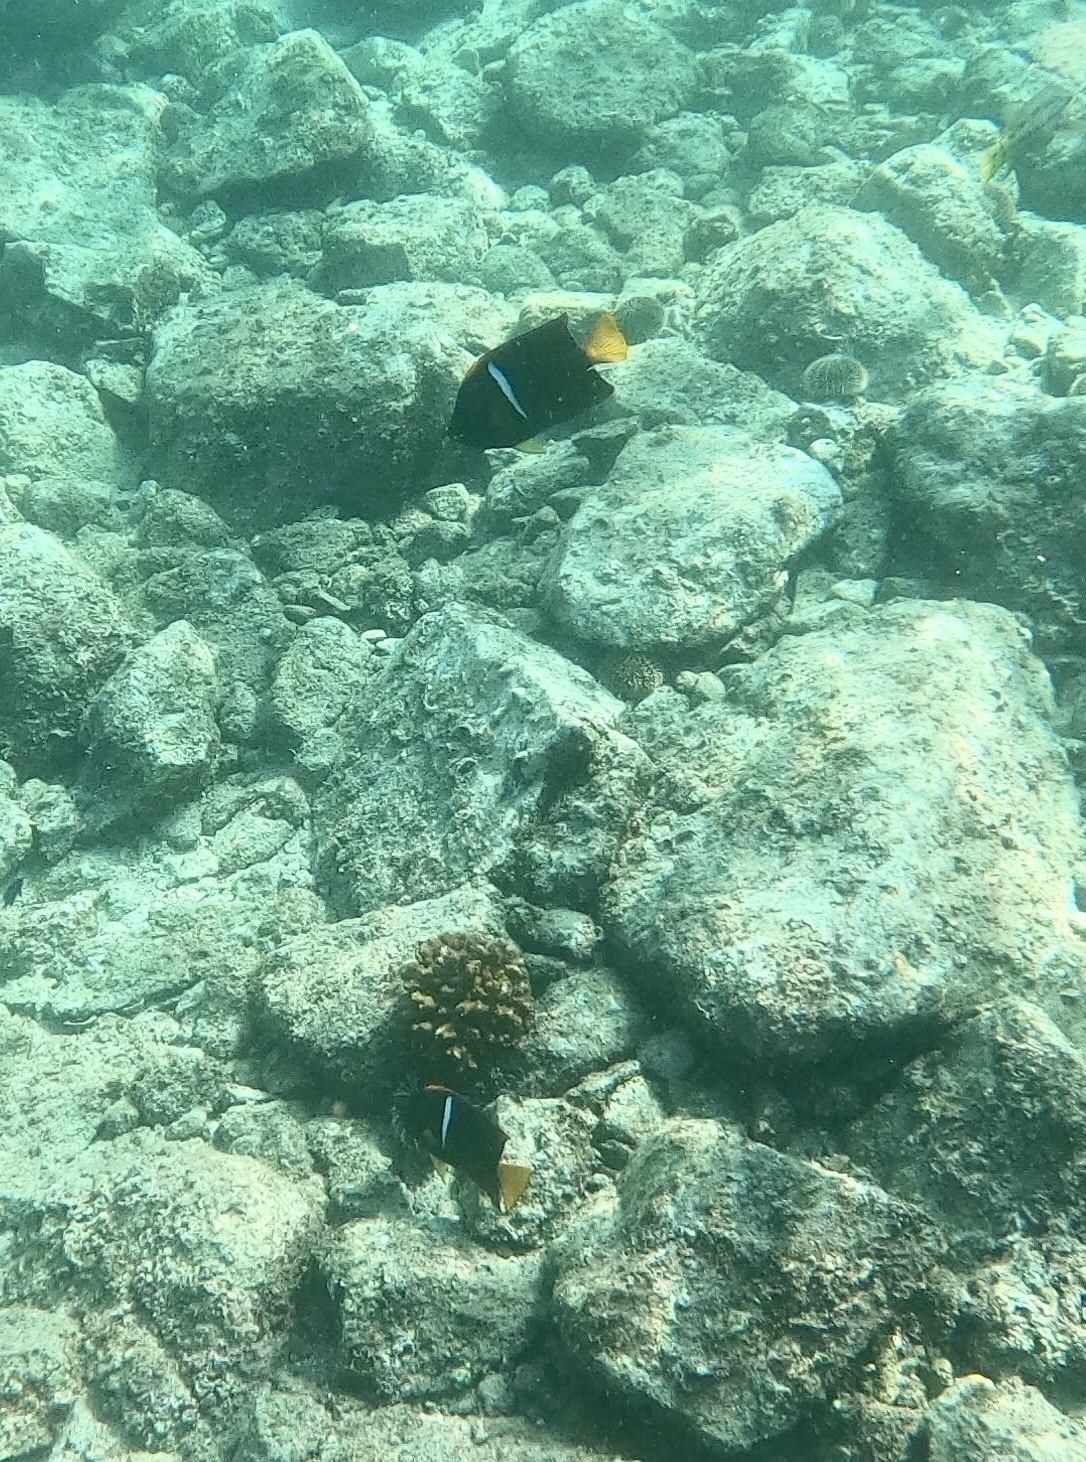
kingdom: Animalia
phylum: Chordata
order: Perciformes
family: Pomacanthidae
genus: Holacanthus
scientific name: Holacanthus passer
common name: King angelfish
